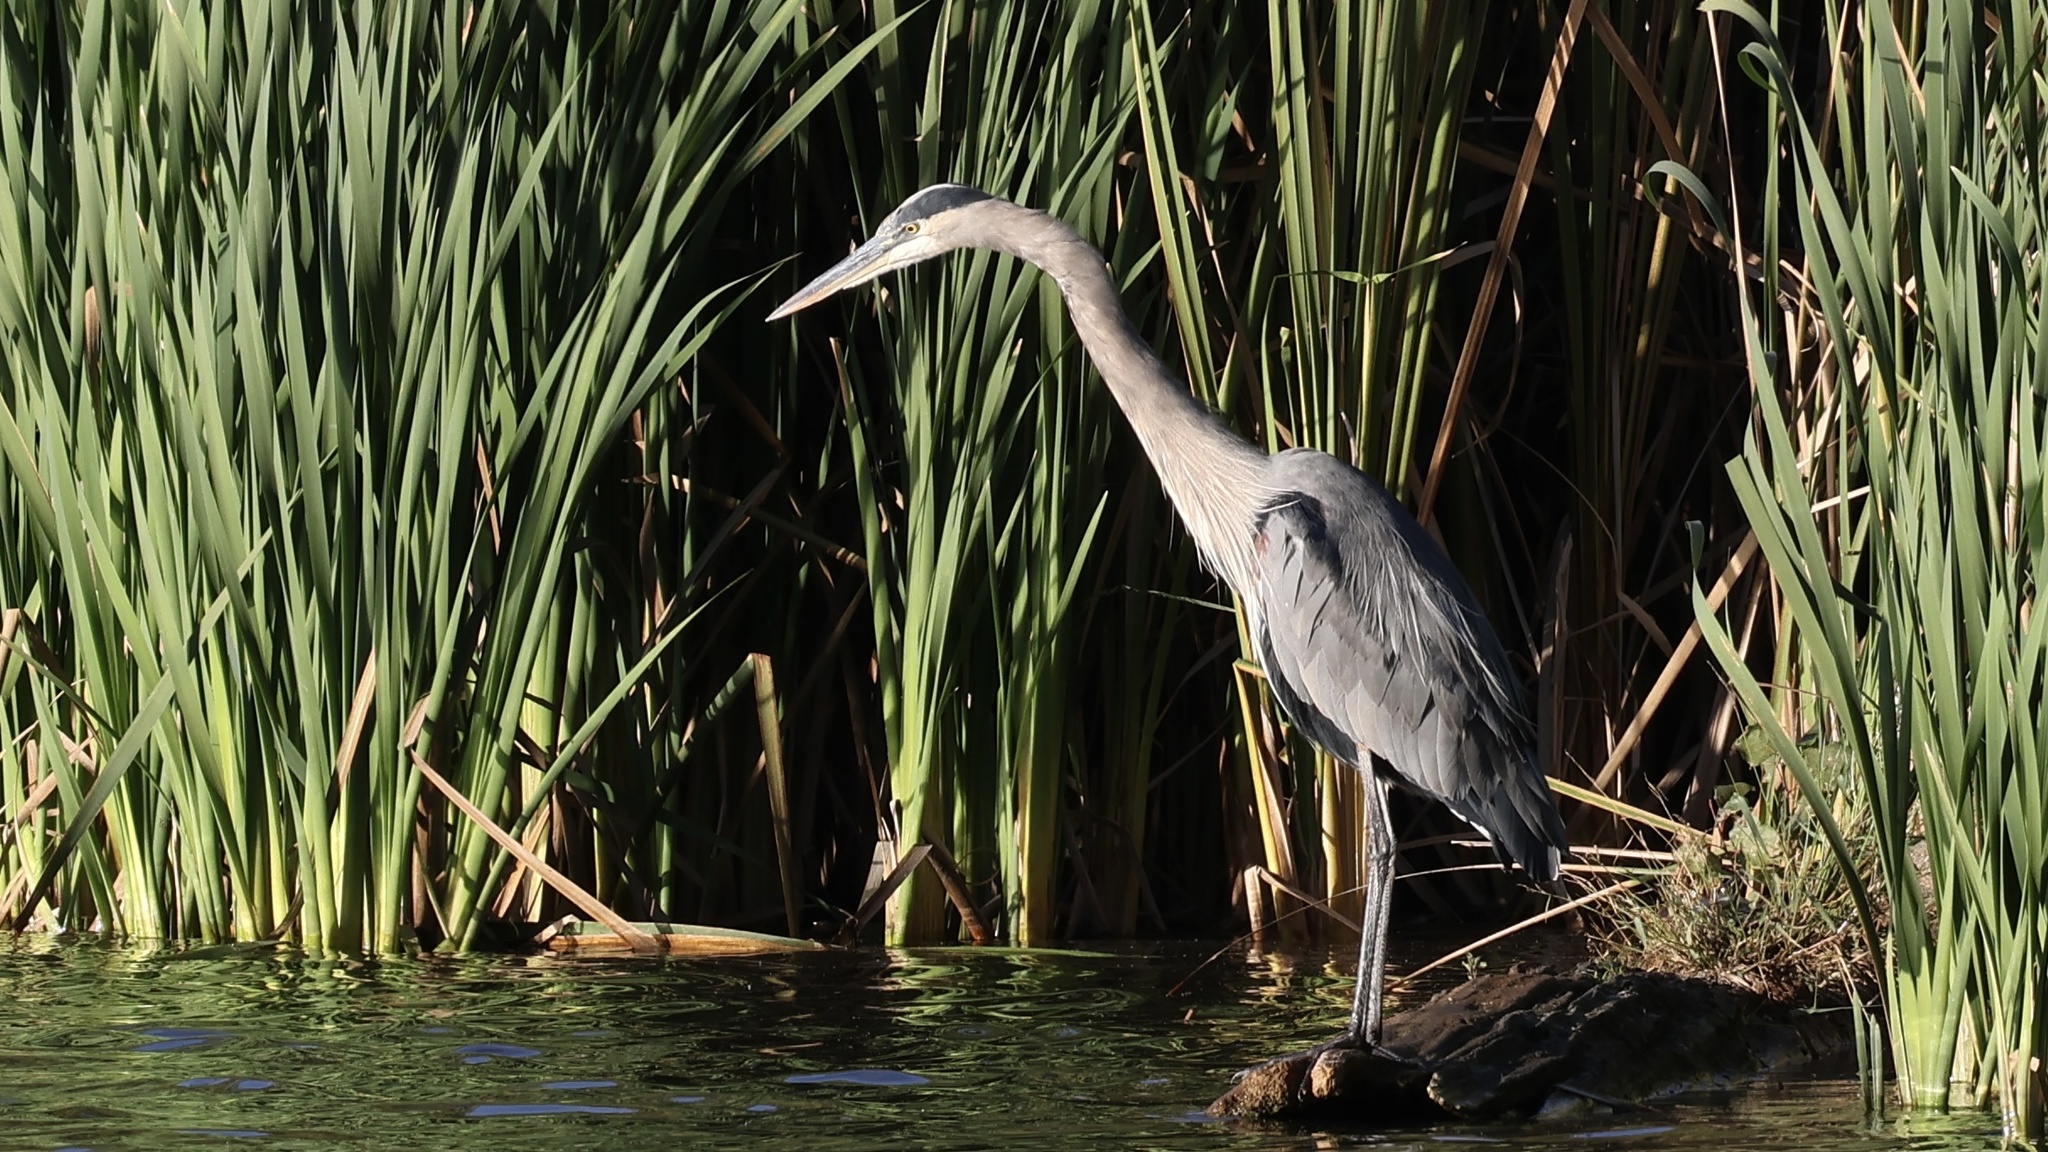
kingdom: Animalia
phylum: Chordata
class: Aves
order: Pelecaniformes
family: Ardeidae
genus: Ardea
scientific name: Ardea herodias
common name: Great blue heron
